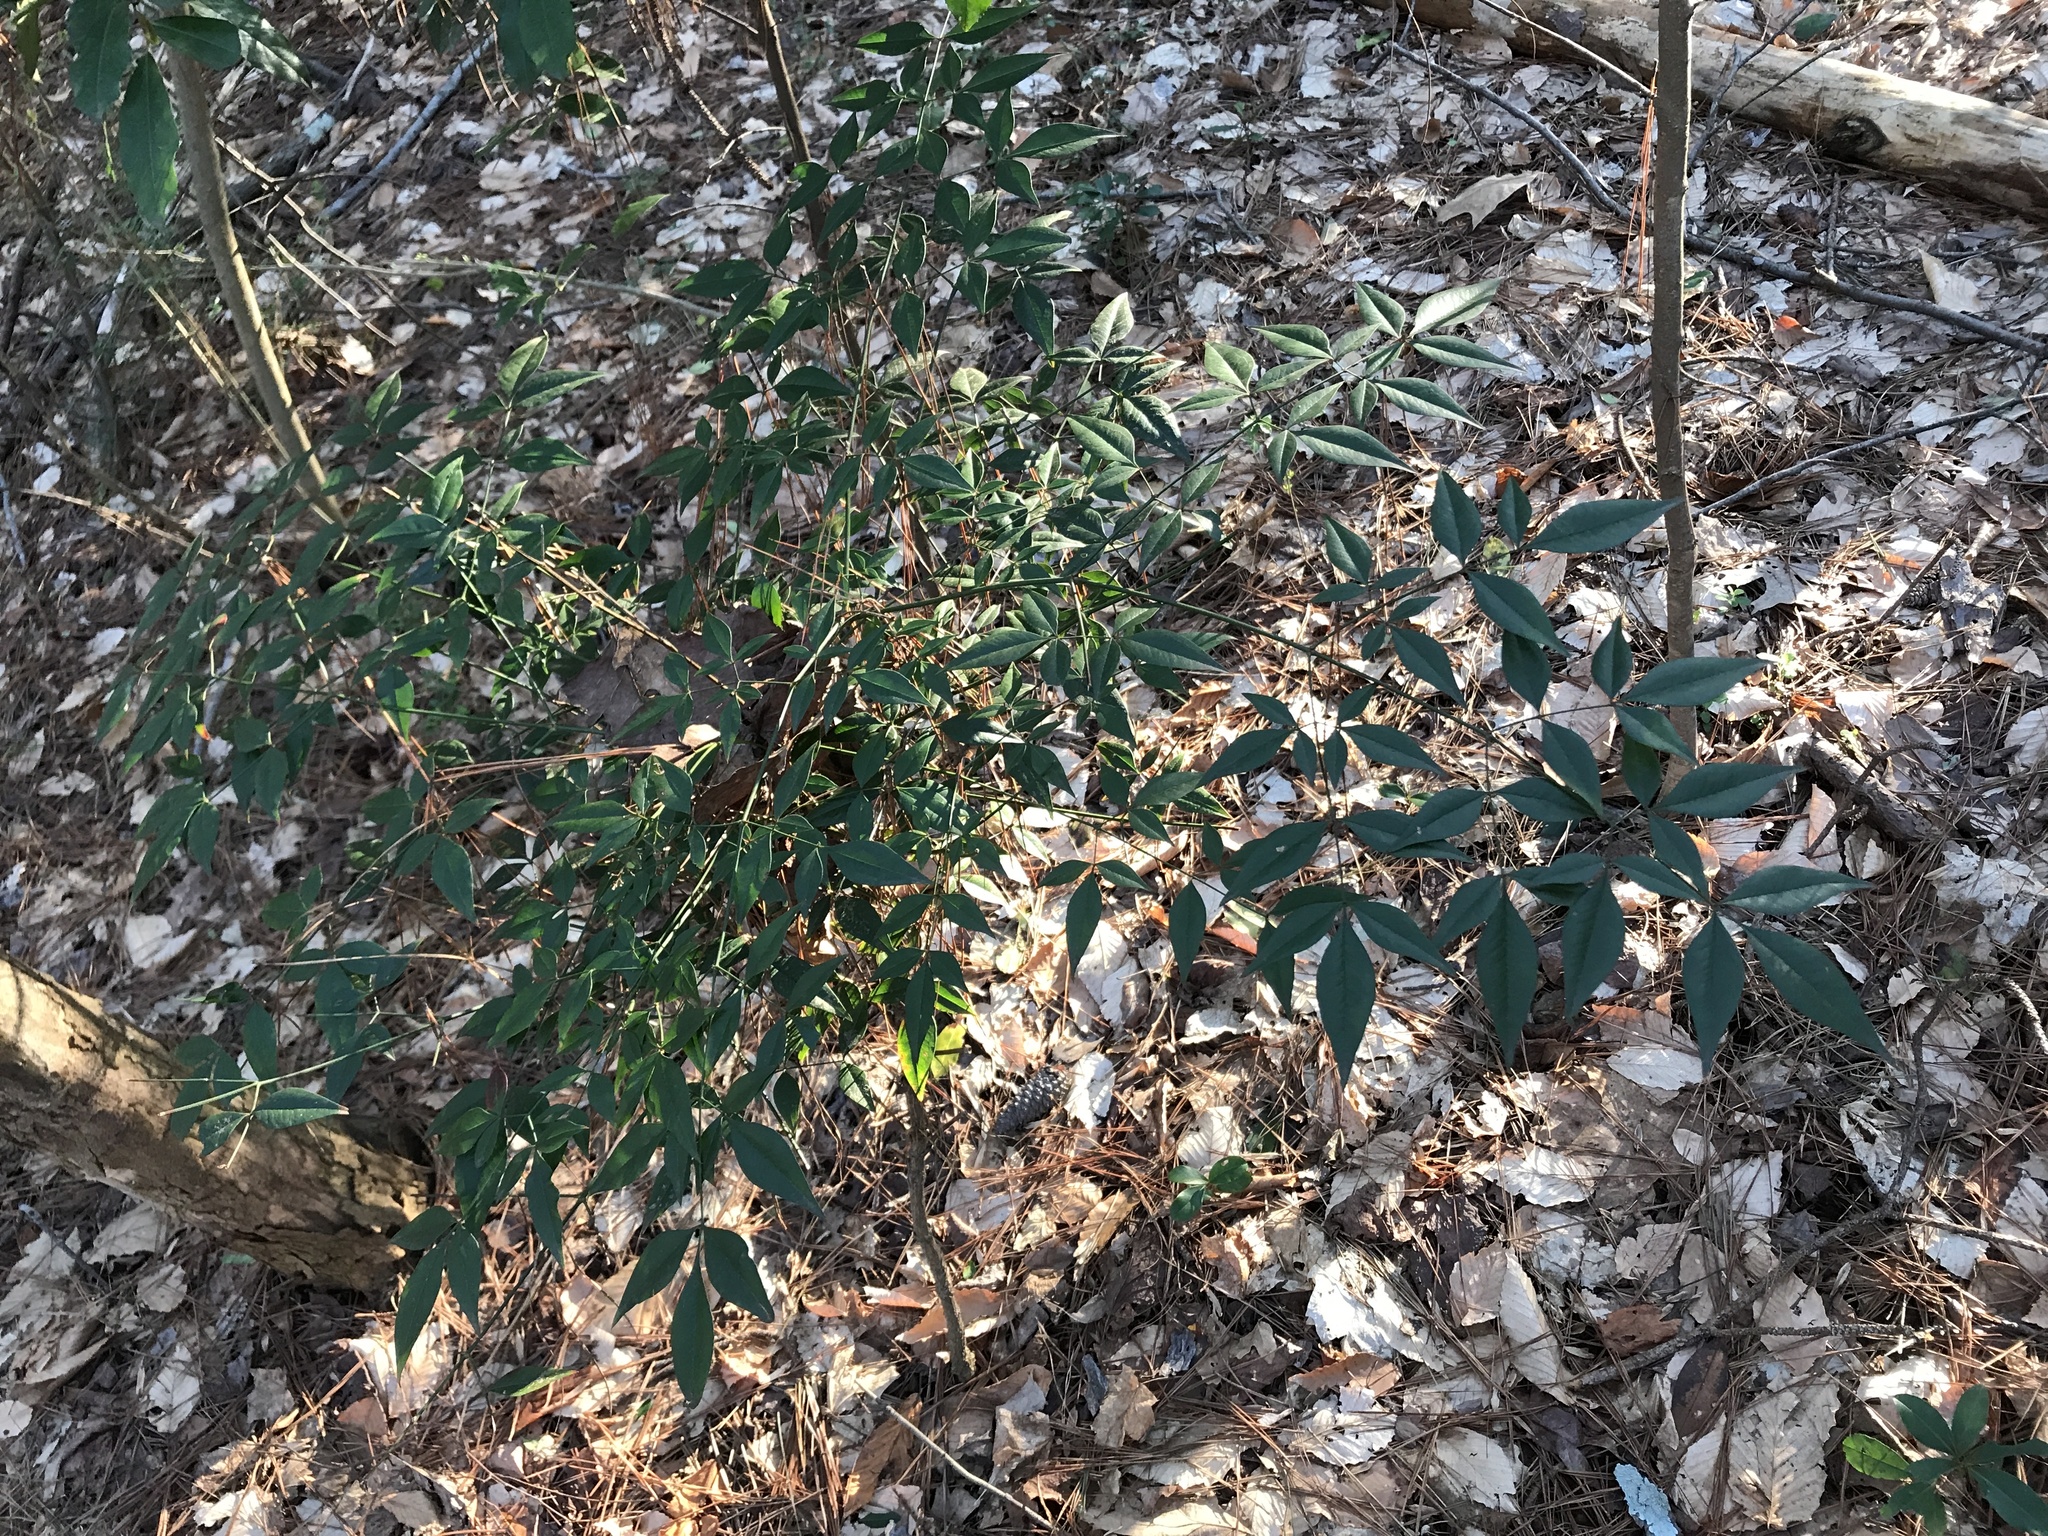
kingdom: Plantae
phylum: Tracheophyta
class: Magnoliopsida
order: Ranunculales
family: Berberidaceae
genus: Nandina
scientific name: Nandina domestica
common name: Sacred bamboo
